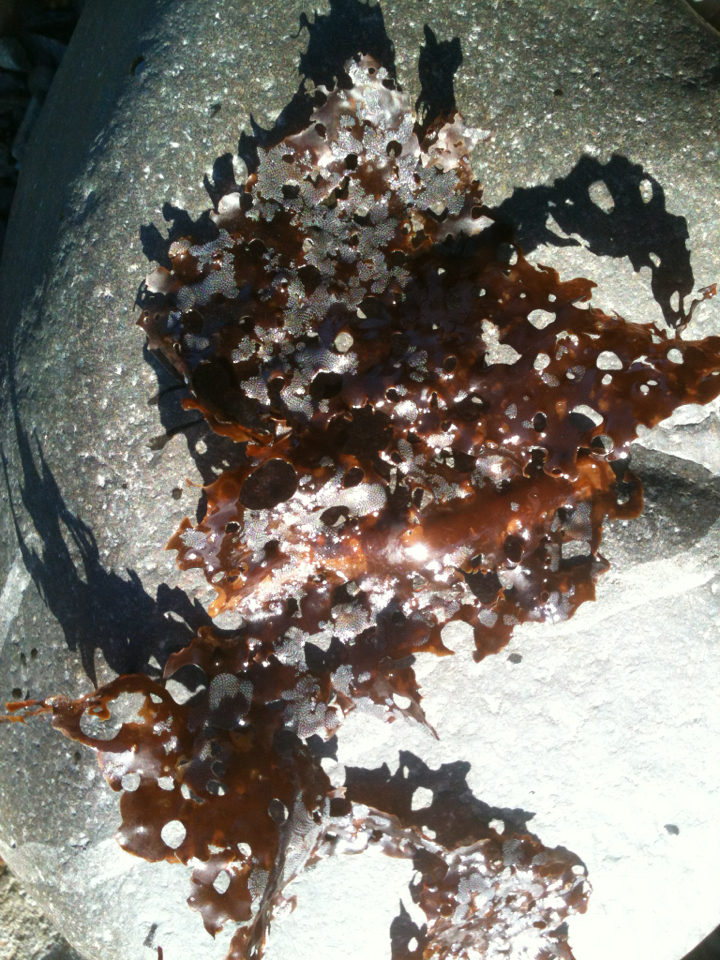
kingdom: Chromista
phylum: Ochrophyta
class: Phaeophyceae
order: Laminariales
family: Costariaceae
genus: Agarum
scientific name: Agarum clathratum
